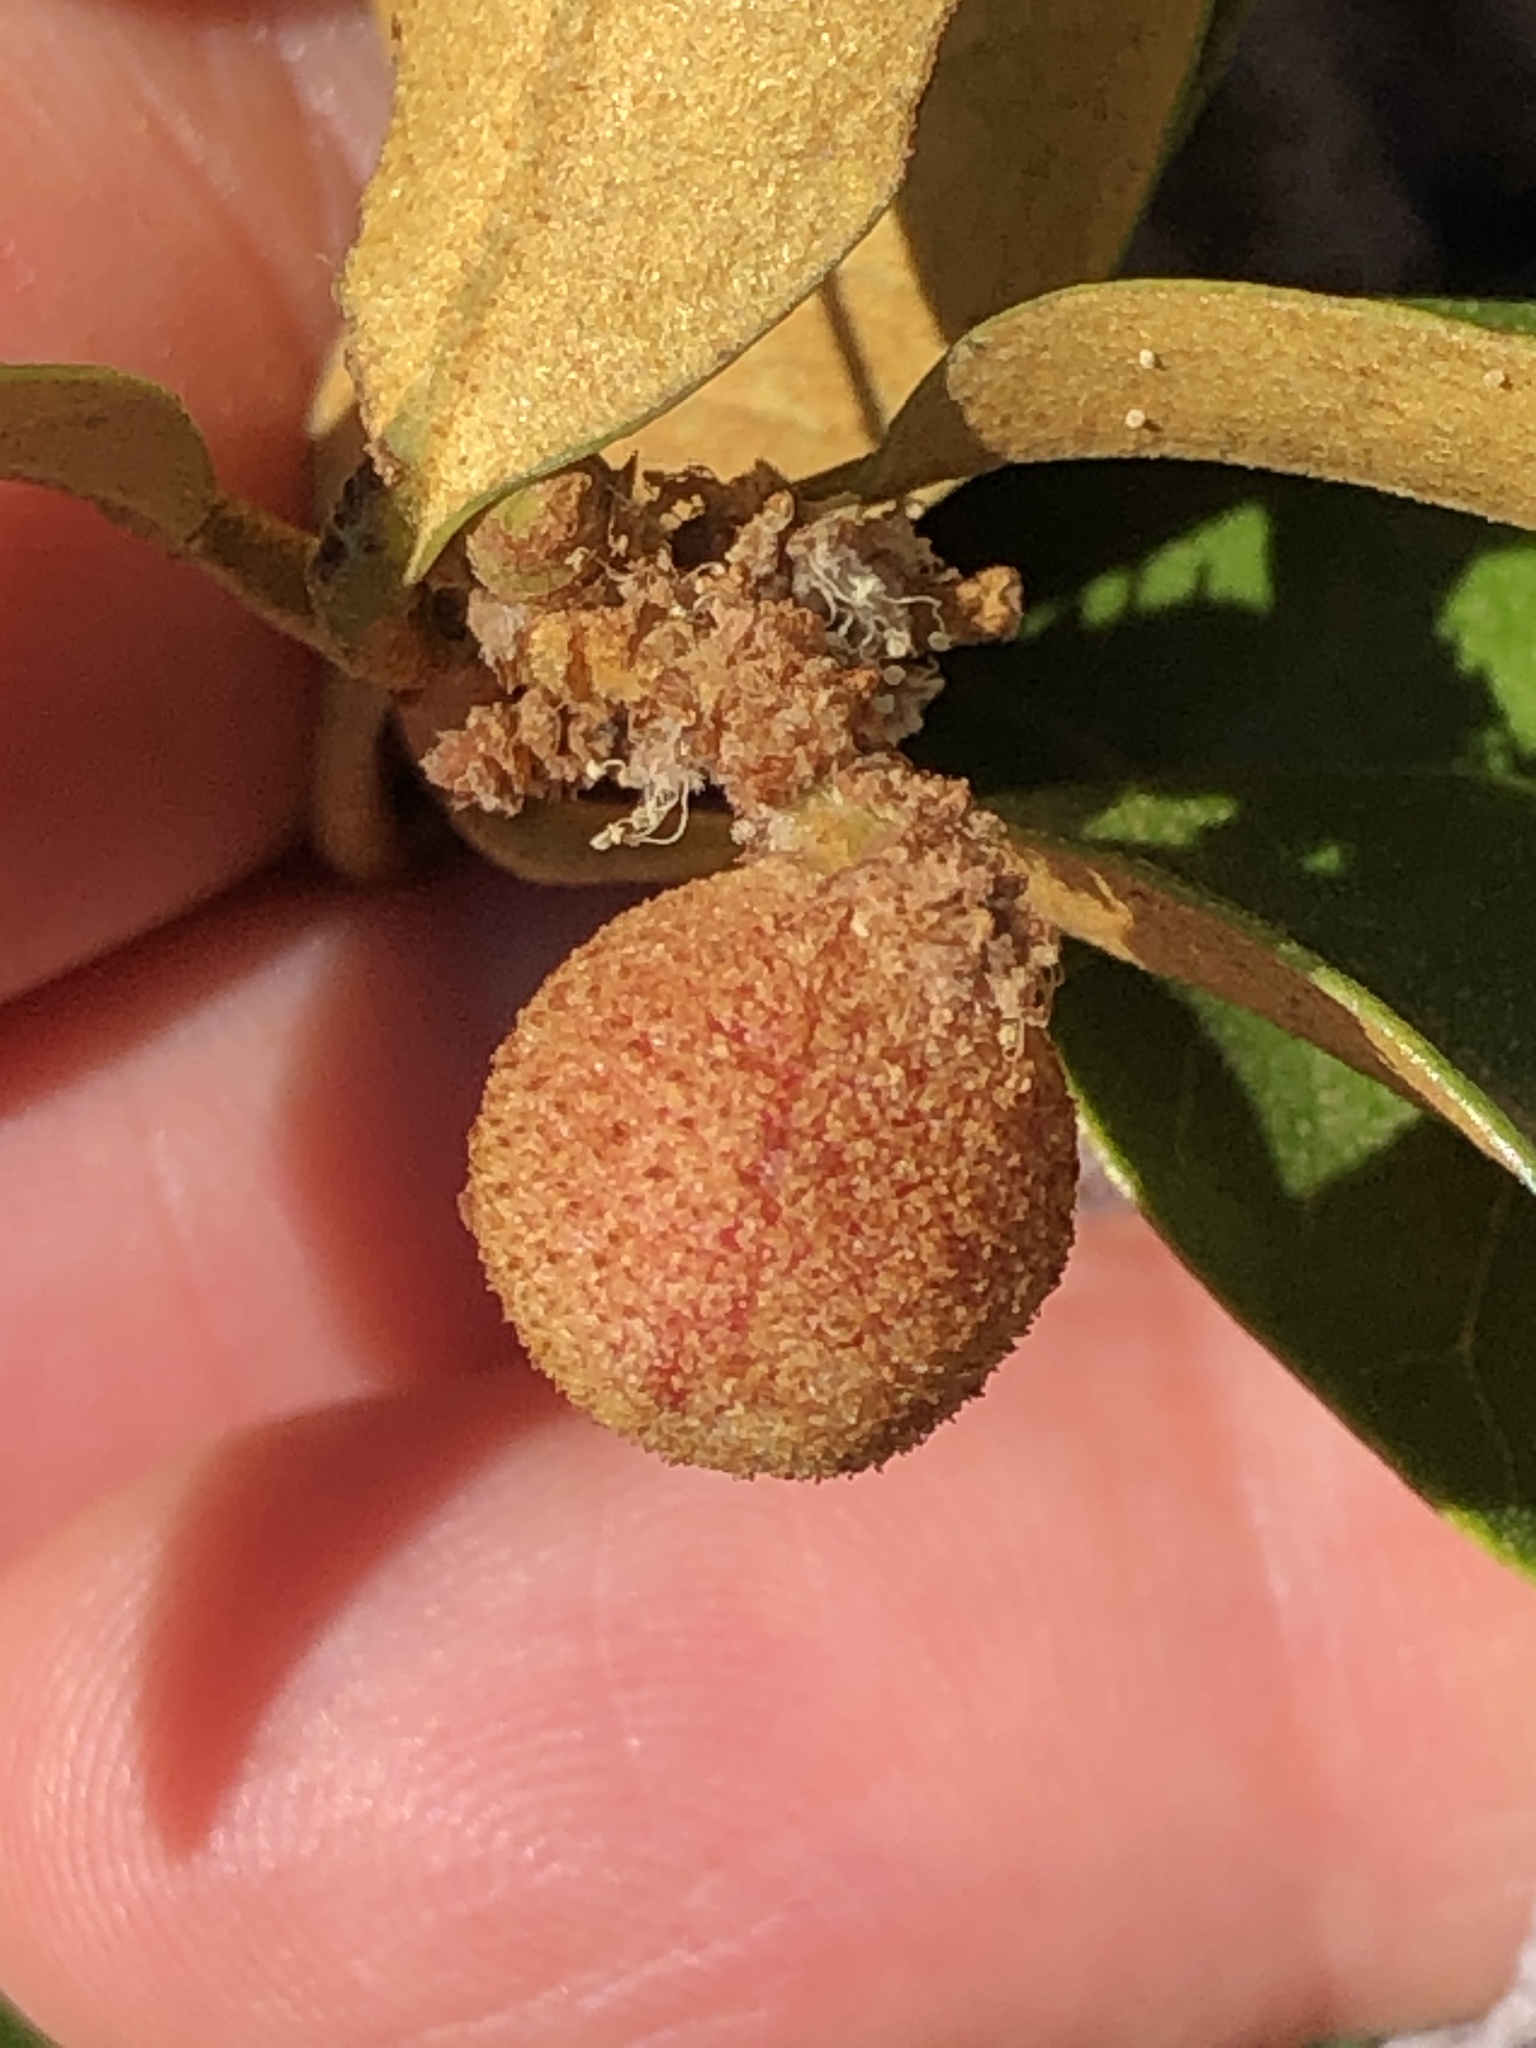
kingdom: Animalia
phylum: Arthropoda
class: Insecta
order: Hymenoptera
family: Cynipidae
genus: Synergus
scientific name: Synergus castanopsidis
